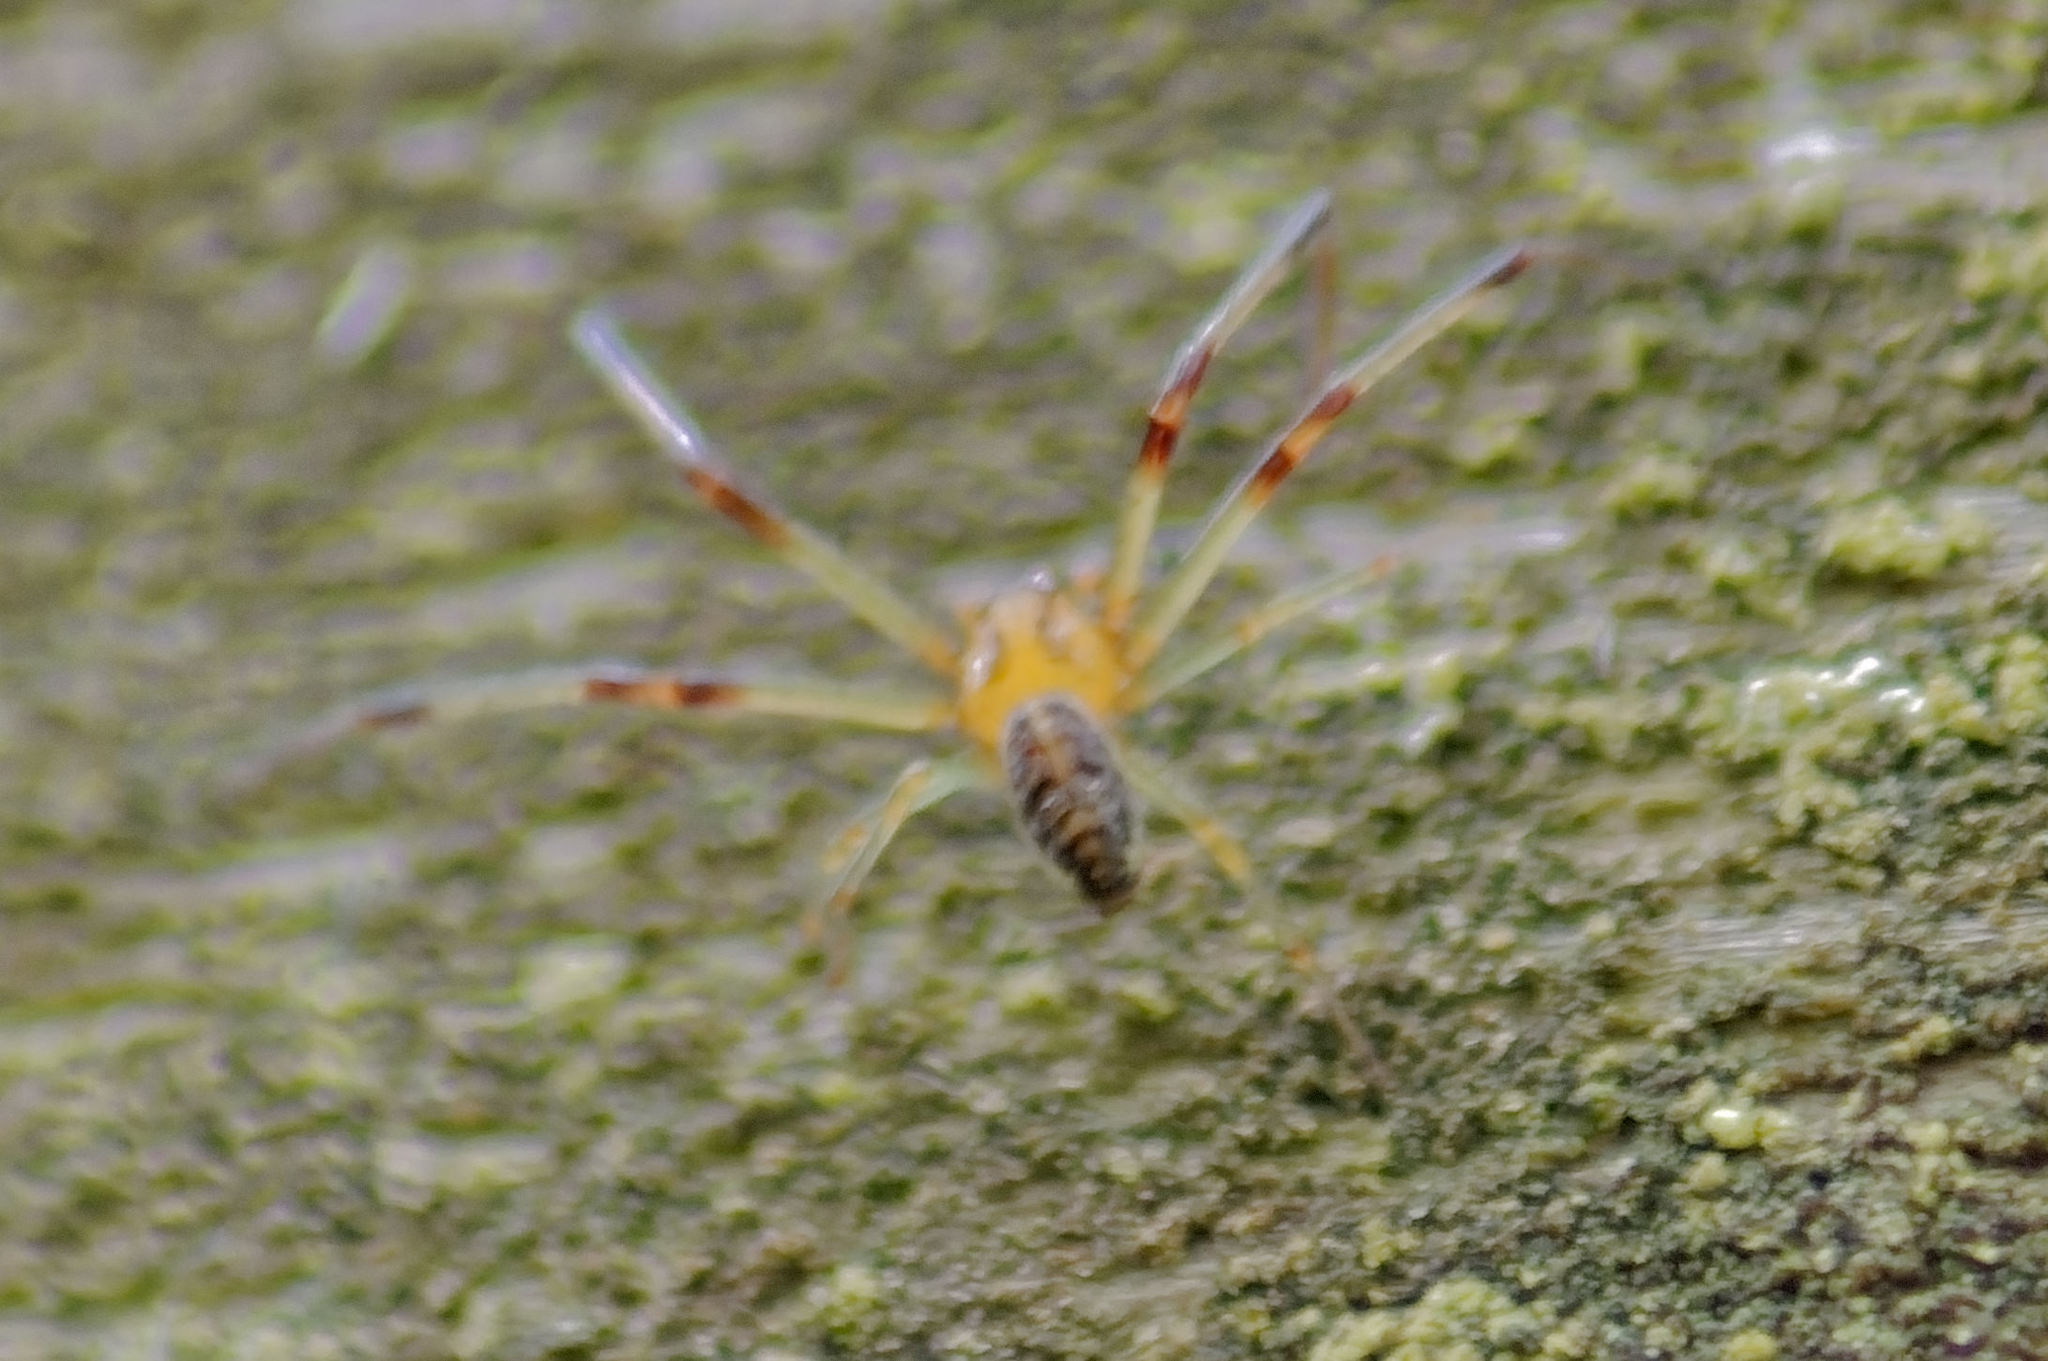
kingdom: Animalia
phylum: Arthropoda
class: Arachnida
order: Araneae
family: Thomisidae
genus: Diaea
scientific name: Diaea dorsata
